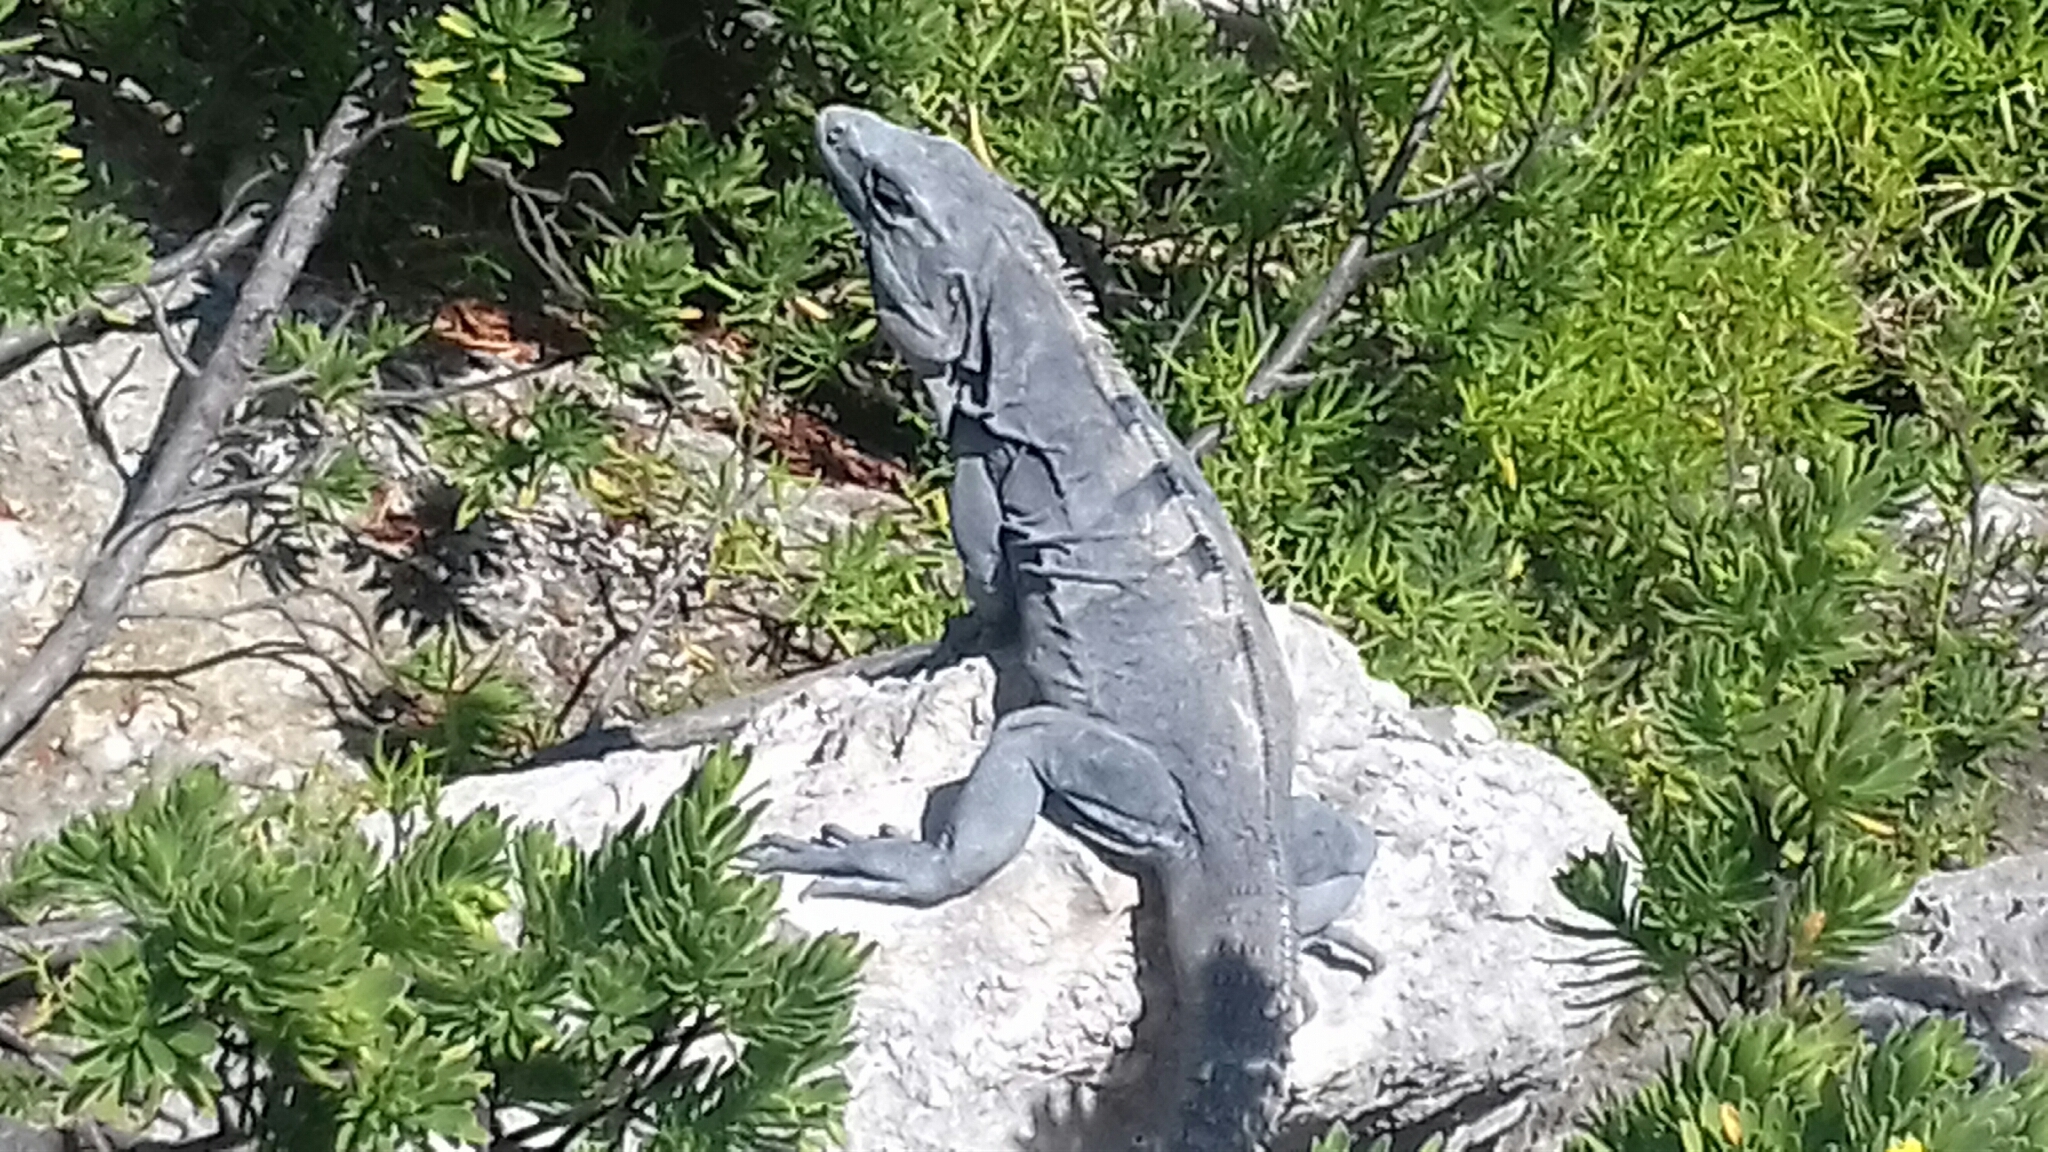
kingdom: Animalia
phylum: Chordata
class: Squamata
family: Iguanidae
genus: Ctenosaura
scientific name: Ctenosaura similis
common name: Black spiny-tailed iguana
